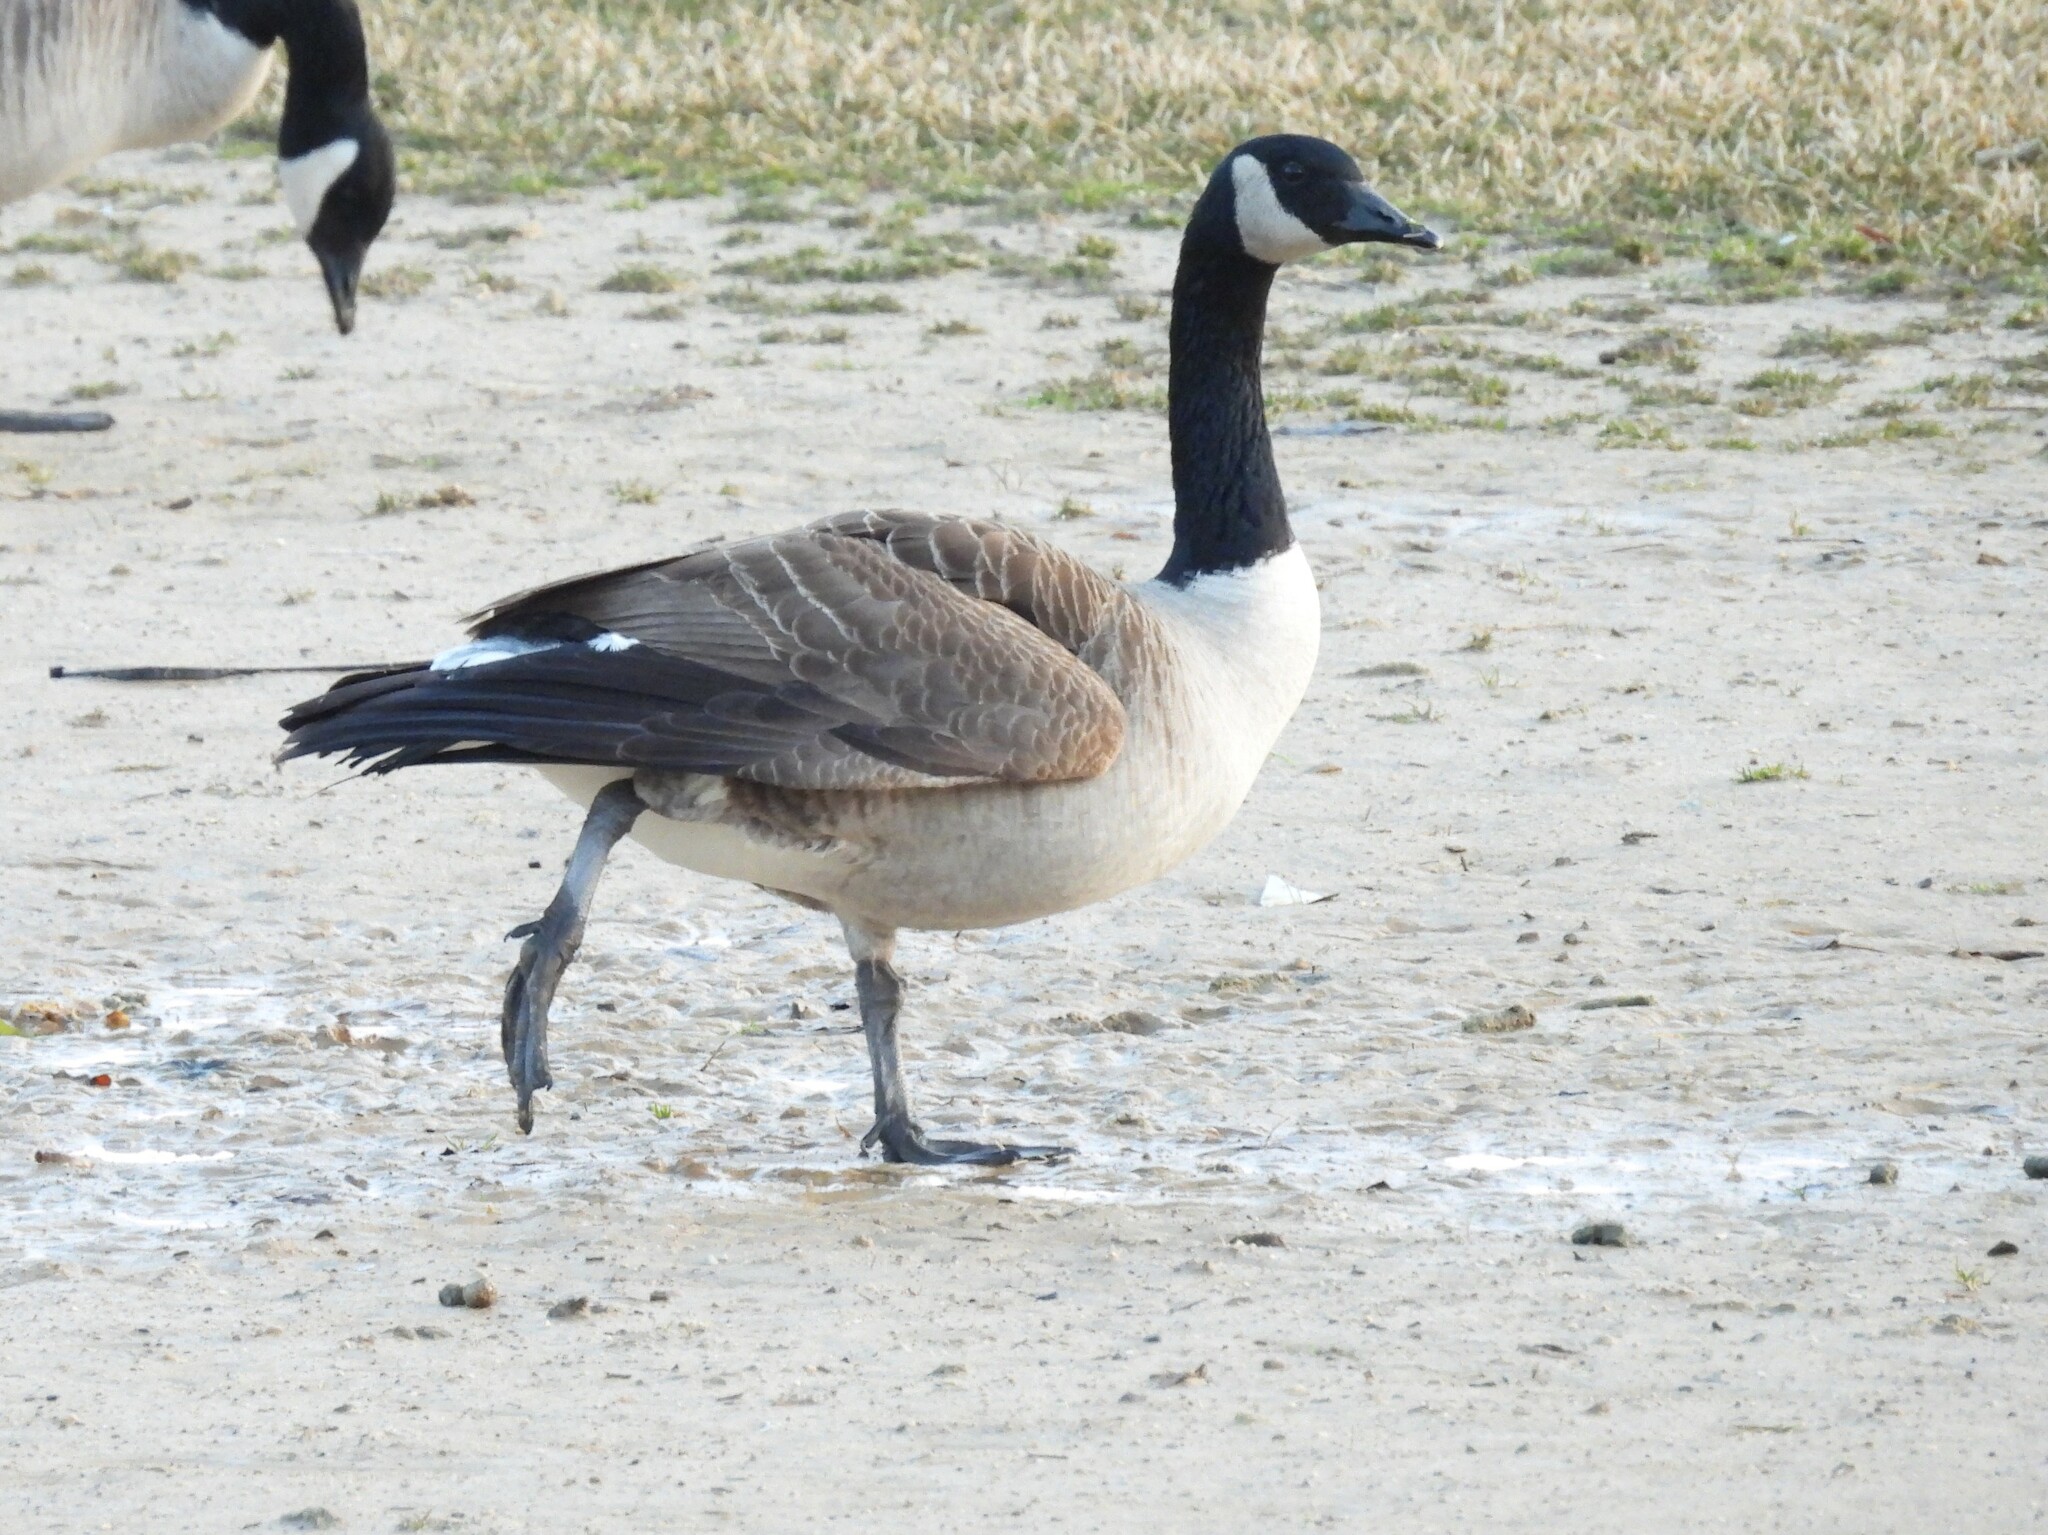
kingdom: Animalia
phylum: Chordata
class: Aves
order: Anseriformes
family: Anatidae
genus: Branta
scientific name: Branta canadensis
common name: Canada goose
